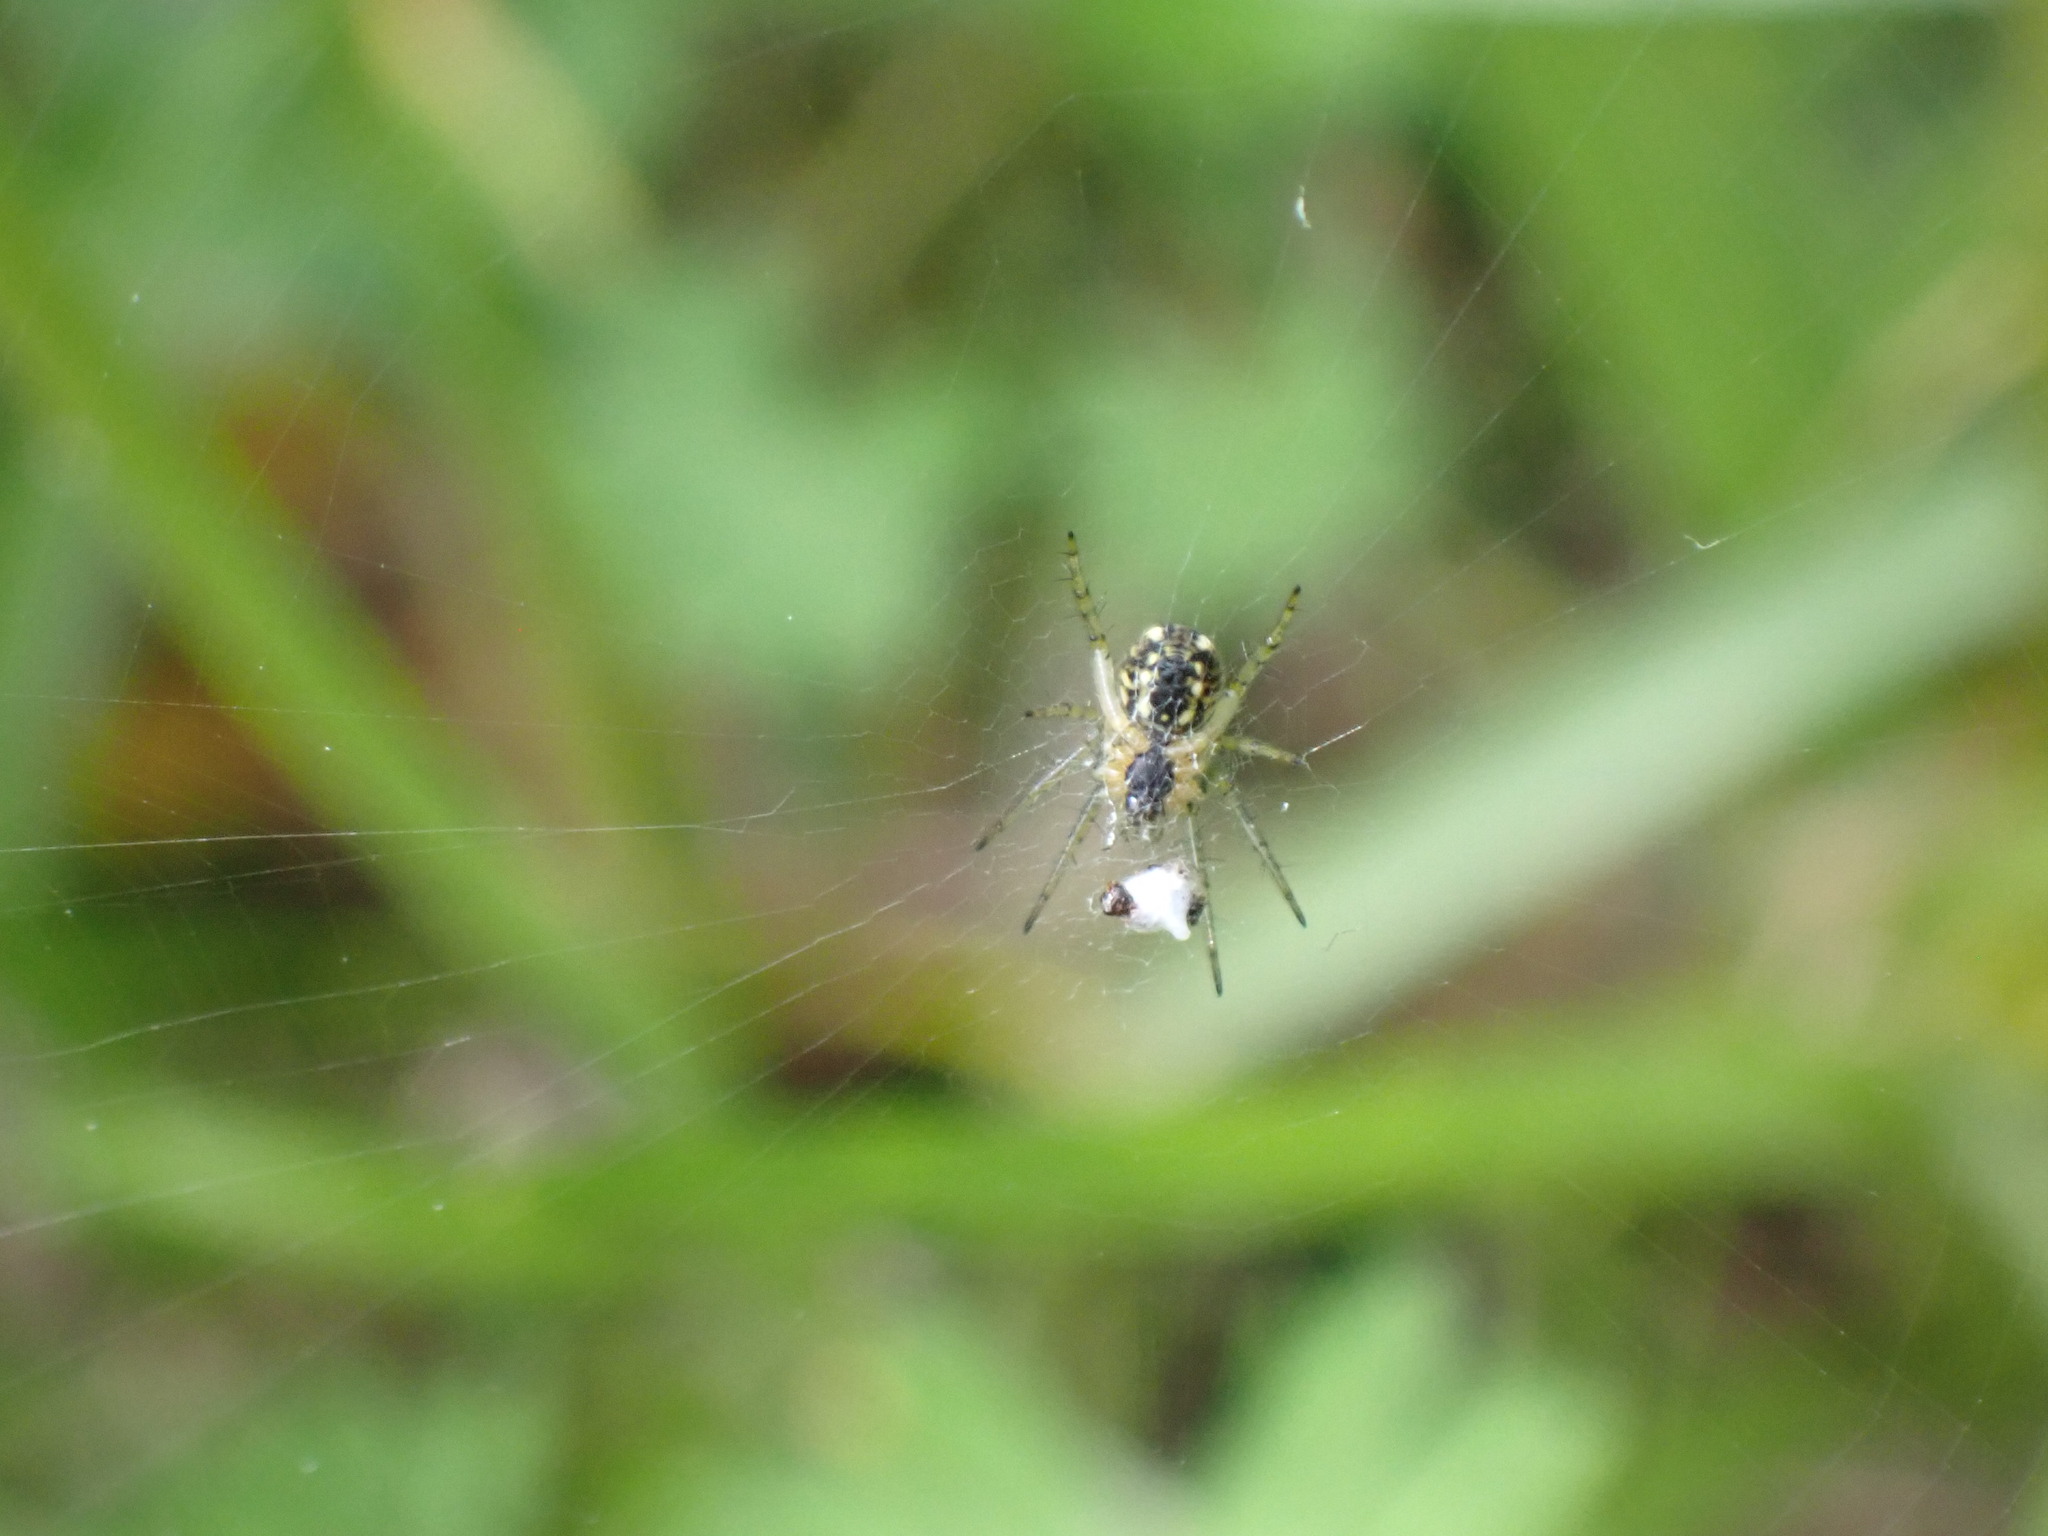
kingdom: Animalia
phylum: Arthropoda
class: Arachnida
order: Araneae
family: Araneidae
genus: Mangora
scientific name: Mangora acalypha
